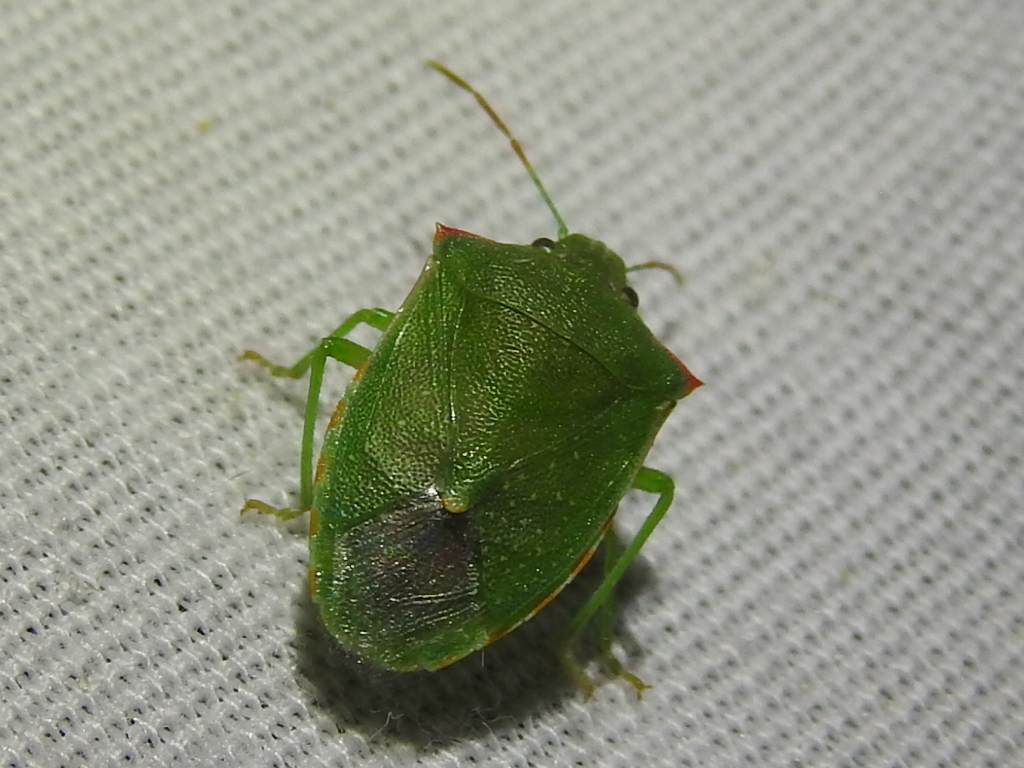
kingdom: Animalia
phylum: Arthropoda
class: Insecta
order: Hemiptera
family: Pentatomidae
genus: Thyanta
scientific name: Thyanta accerra
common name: Stink bug
